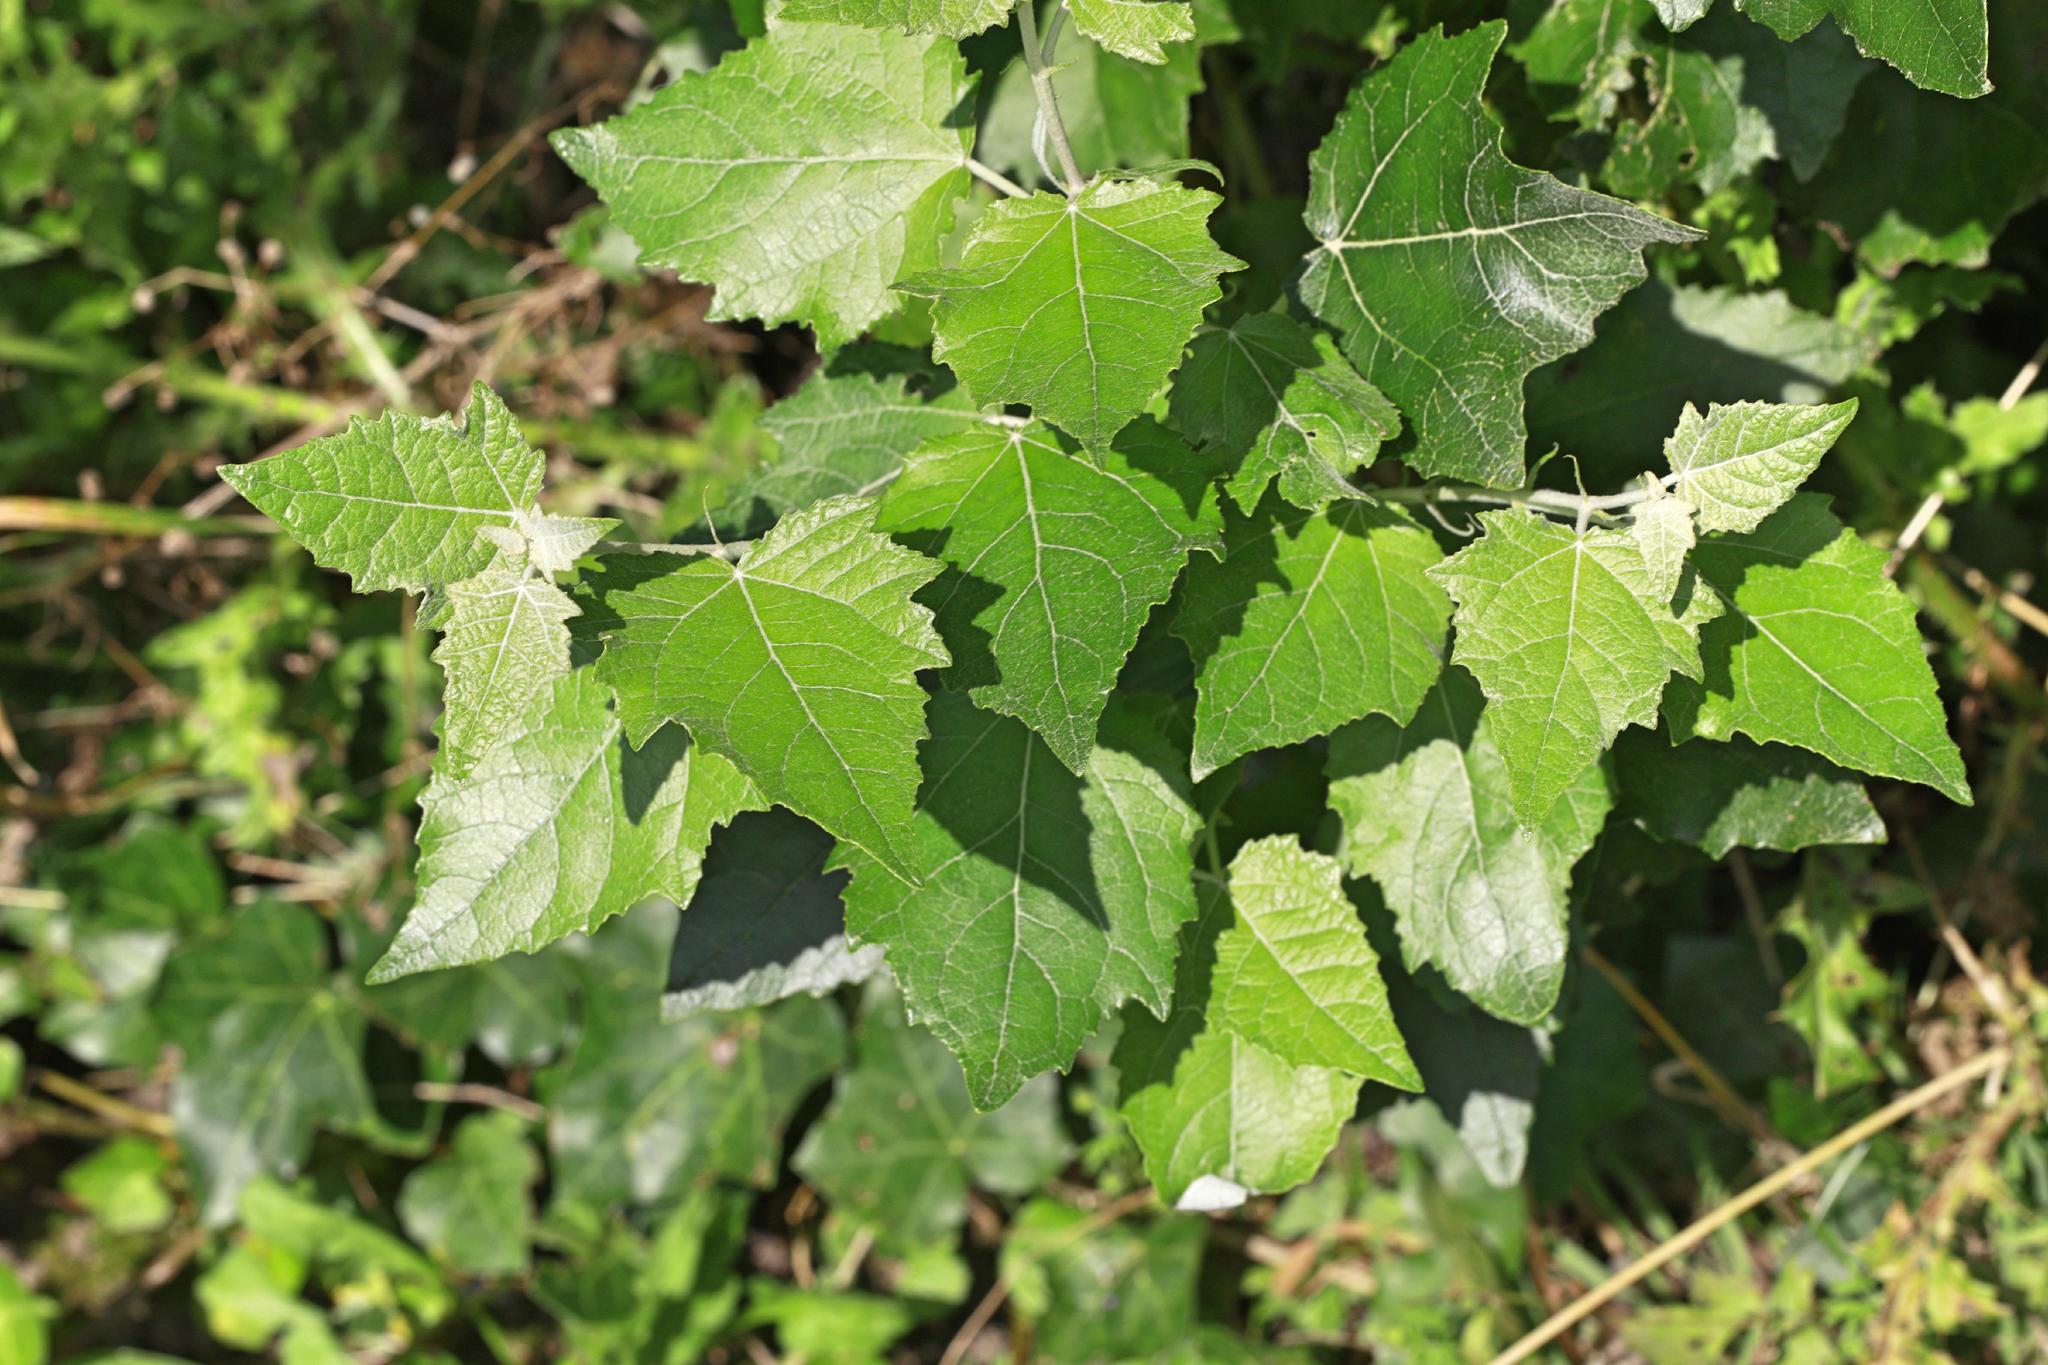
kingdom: Plantae
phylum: Tracheophyta
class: Magnoliopsida
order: Malpighiales
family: Salicaceae
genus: Populus
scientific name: Populus alba
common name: White poplar
